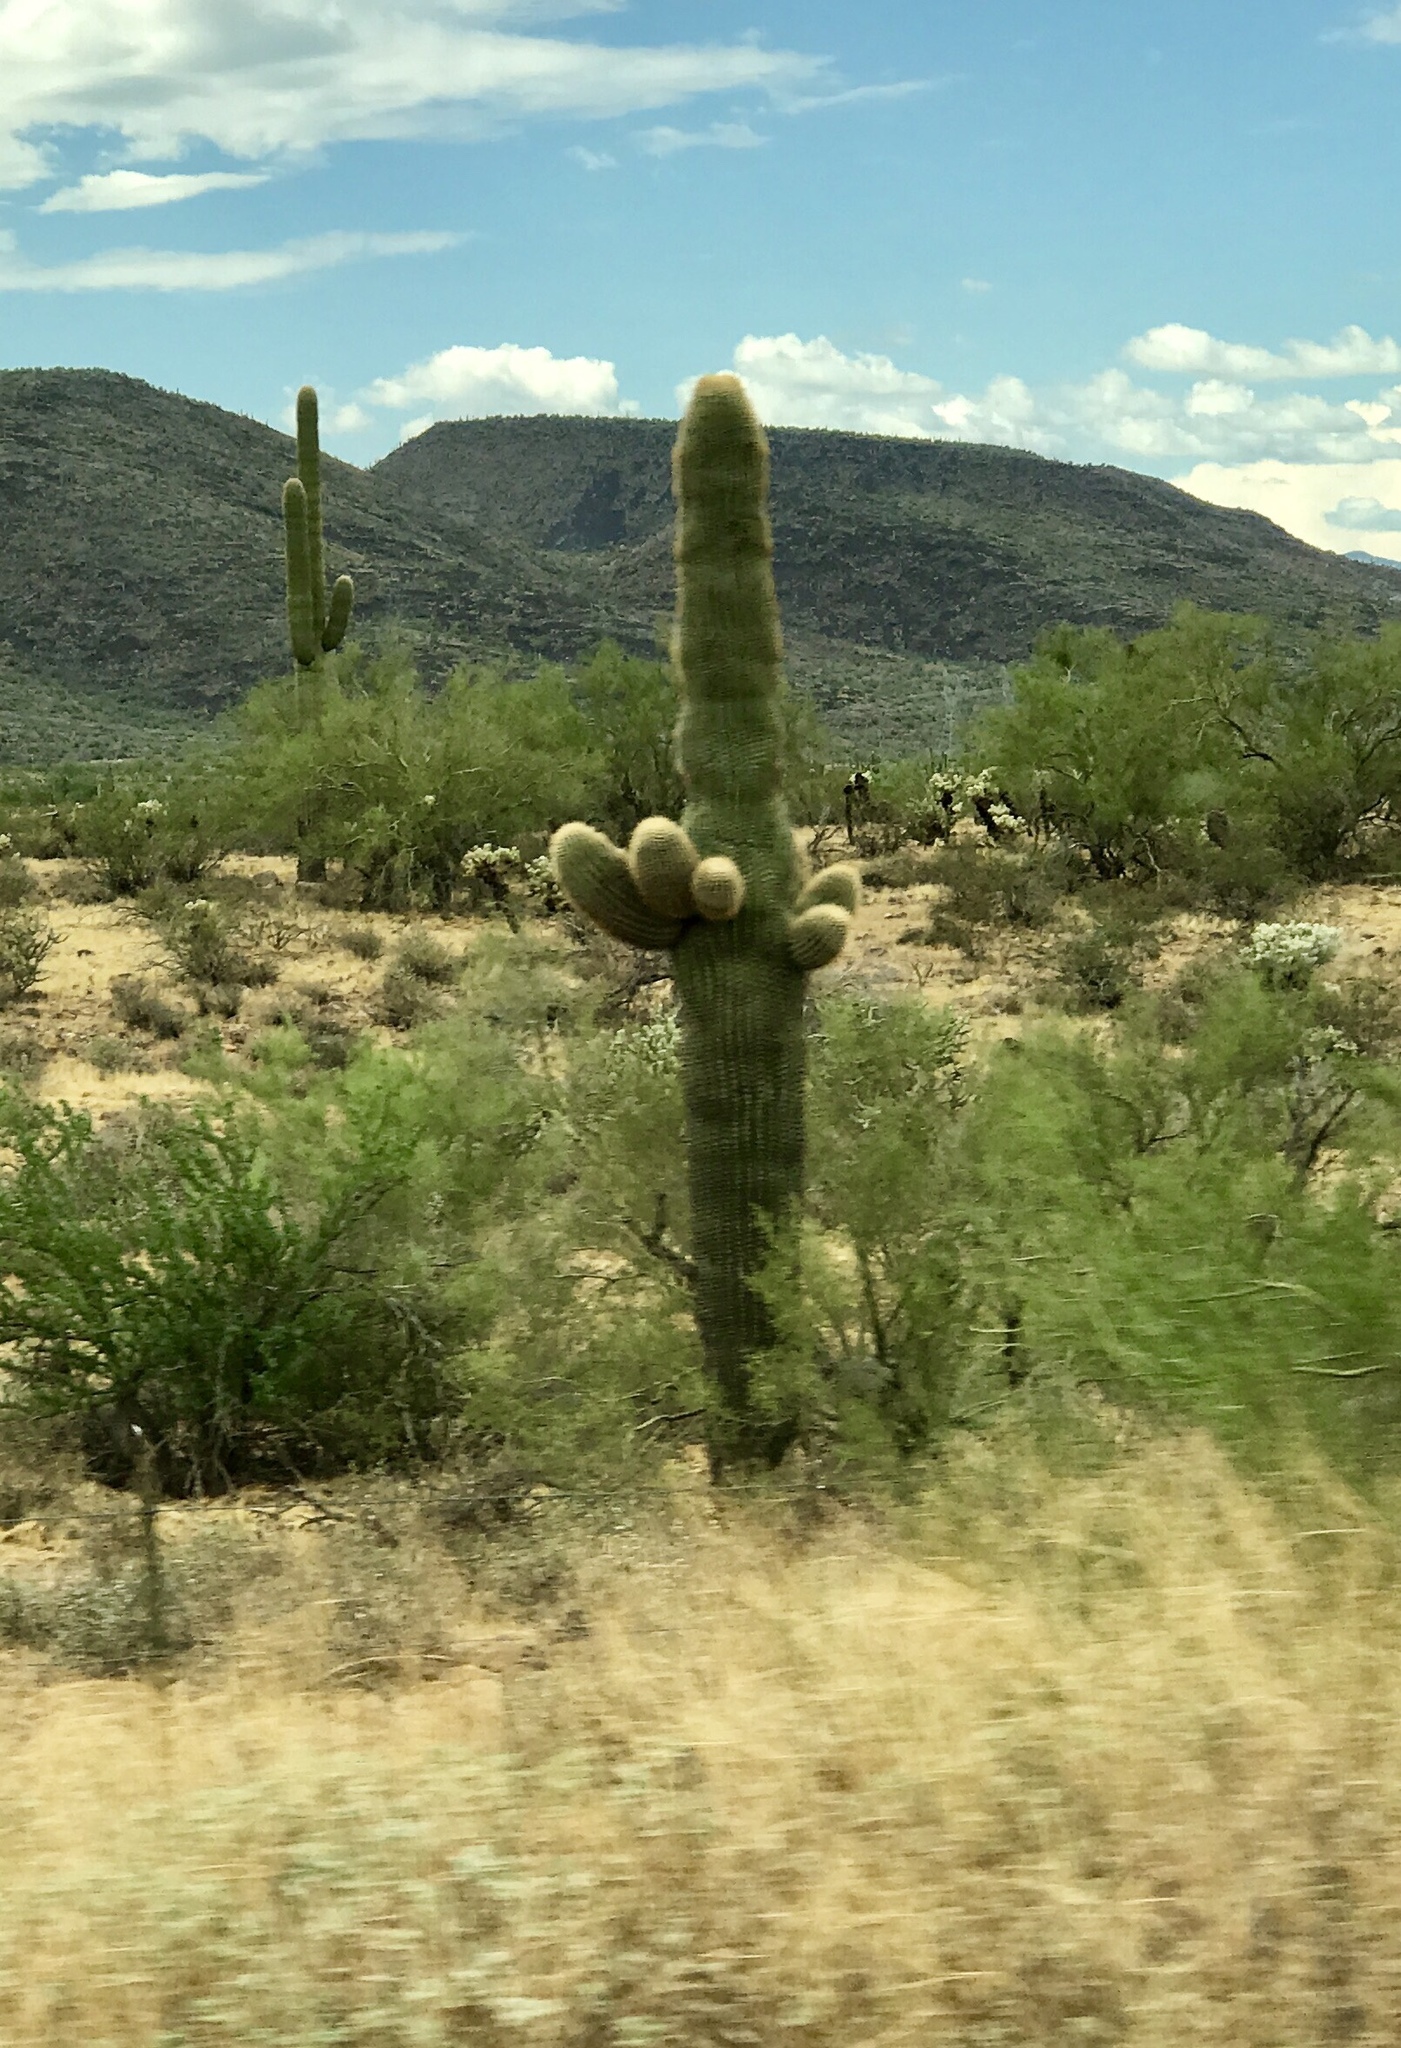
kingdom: Plantae
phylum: Tracheophyta
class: Magnoliopsida
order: Caryophyllales
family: Cactaceae
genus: Carnegiea
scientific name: Carnegiea gigantea
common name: Saguaro
